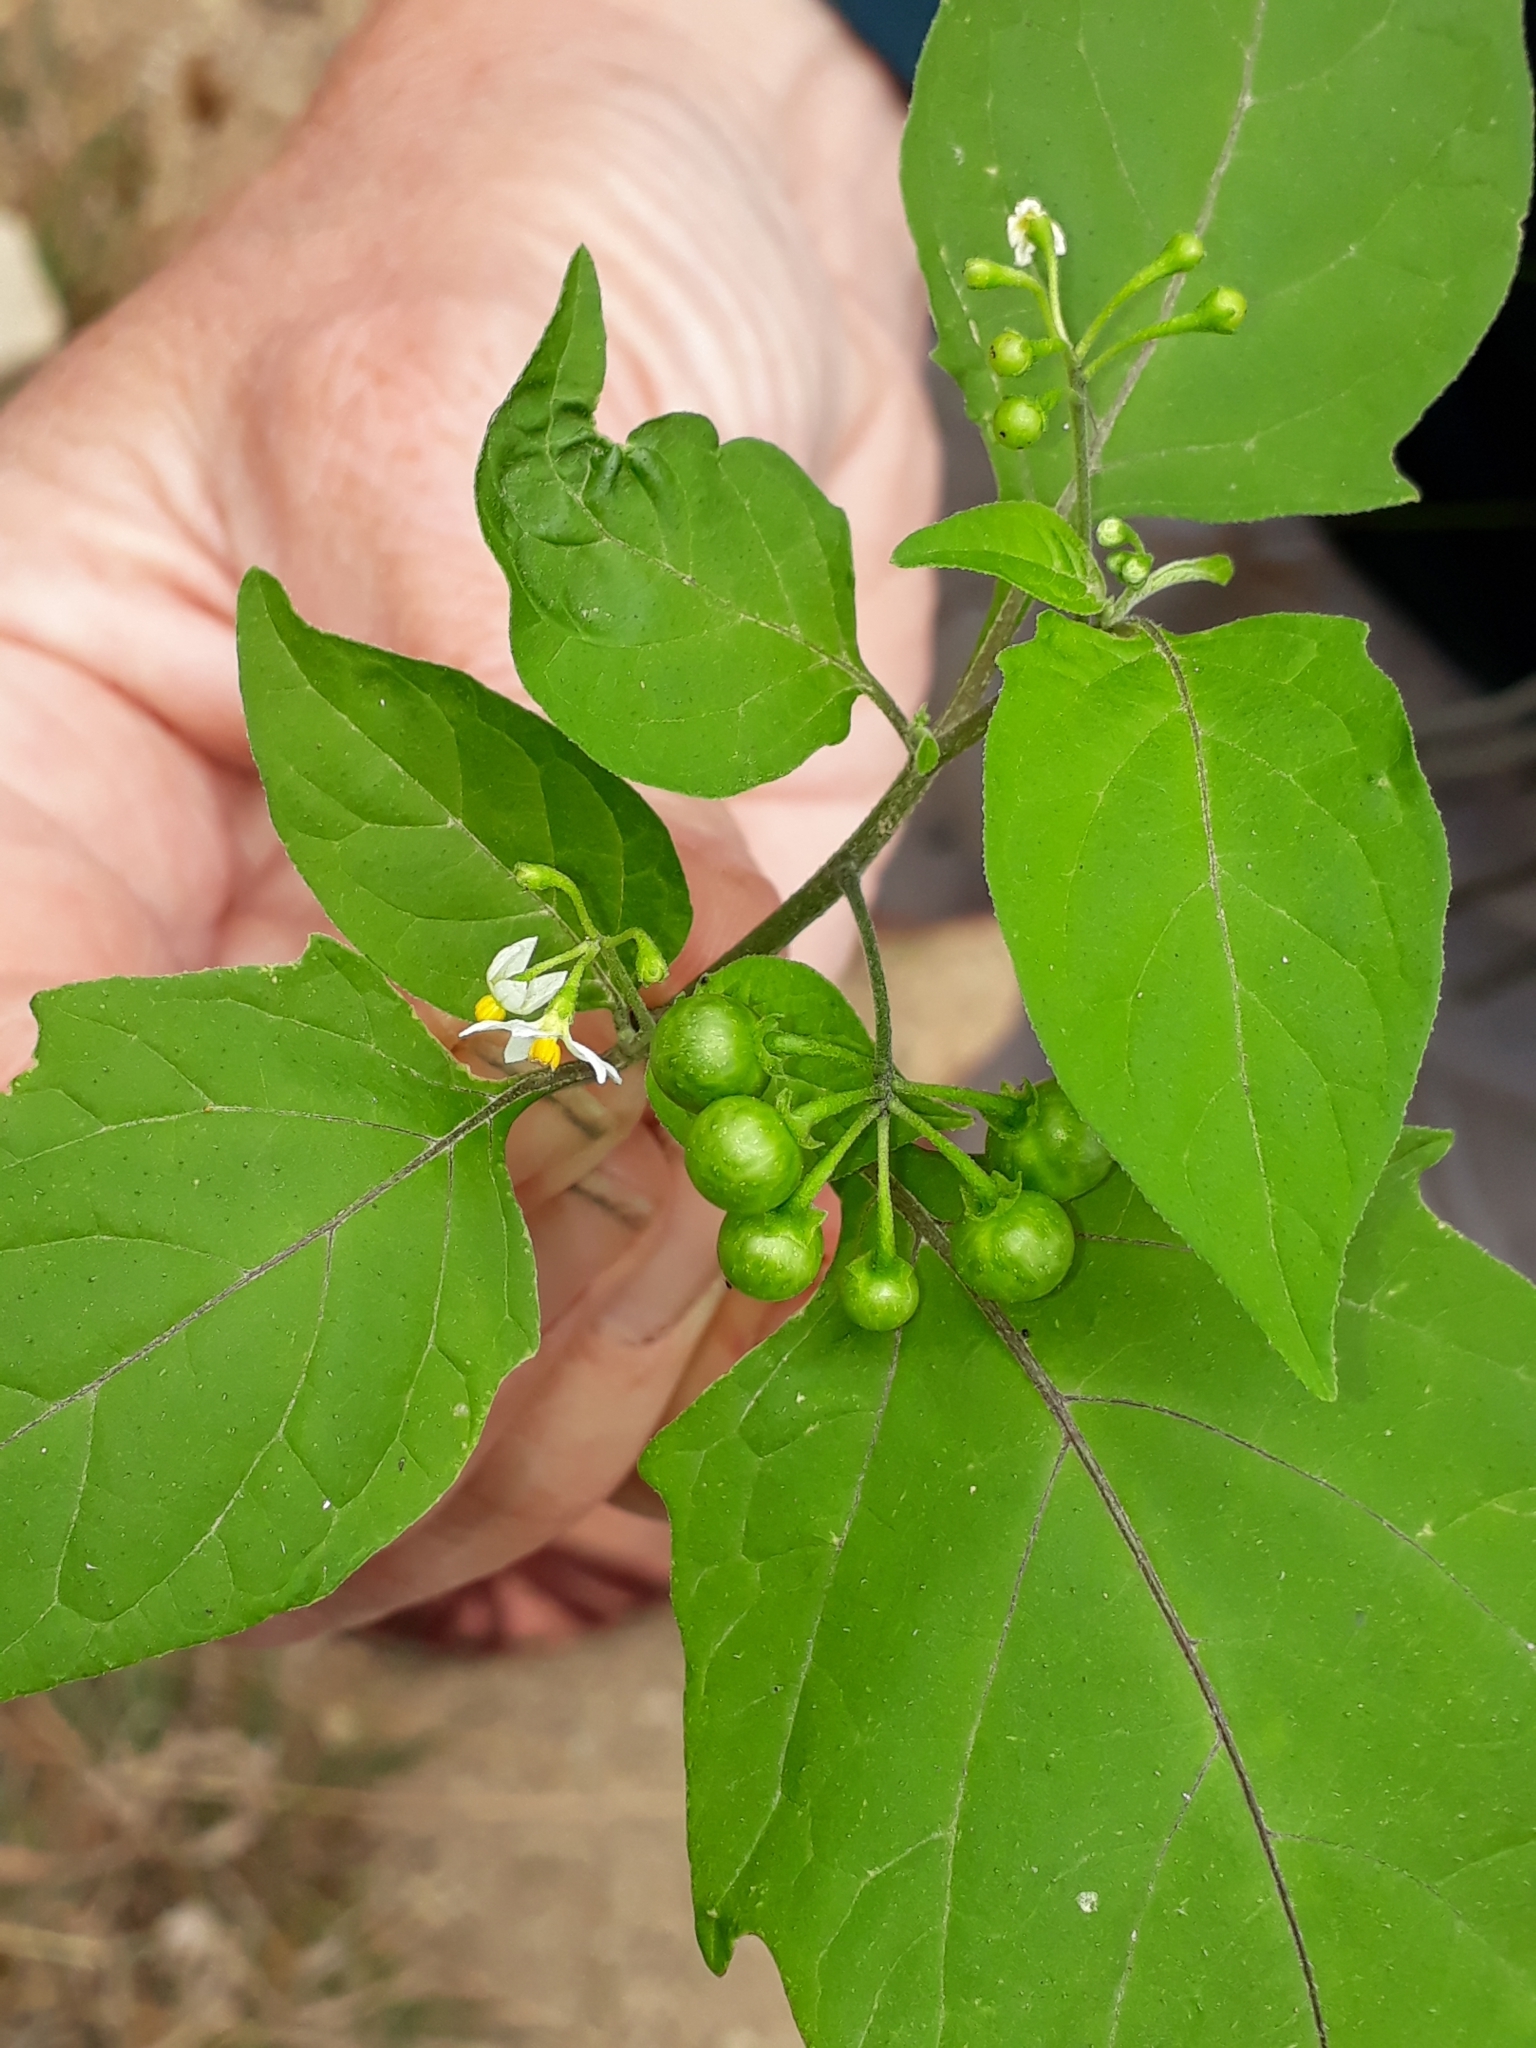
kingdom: Plantae
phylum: Tracheophyta
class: Magnoliopsida
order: Solanales
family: Solanaceae
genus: Solanum
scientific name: Solanum nigrum
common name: Black nightshade
